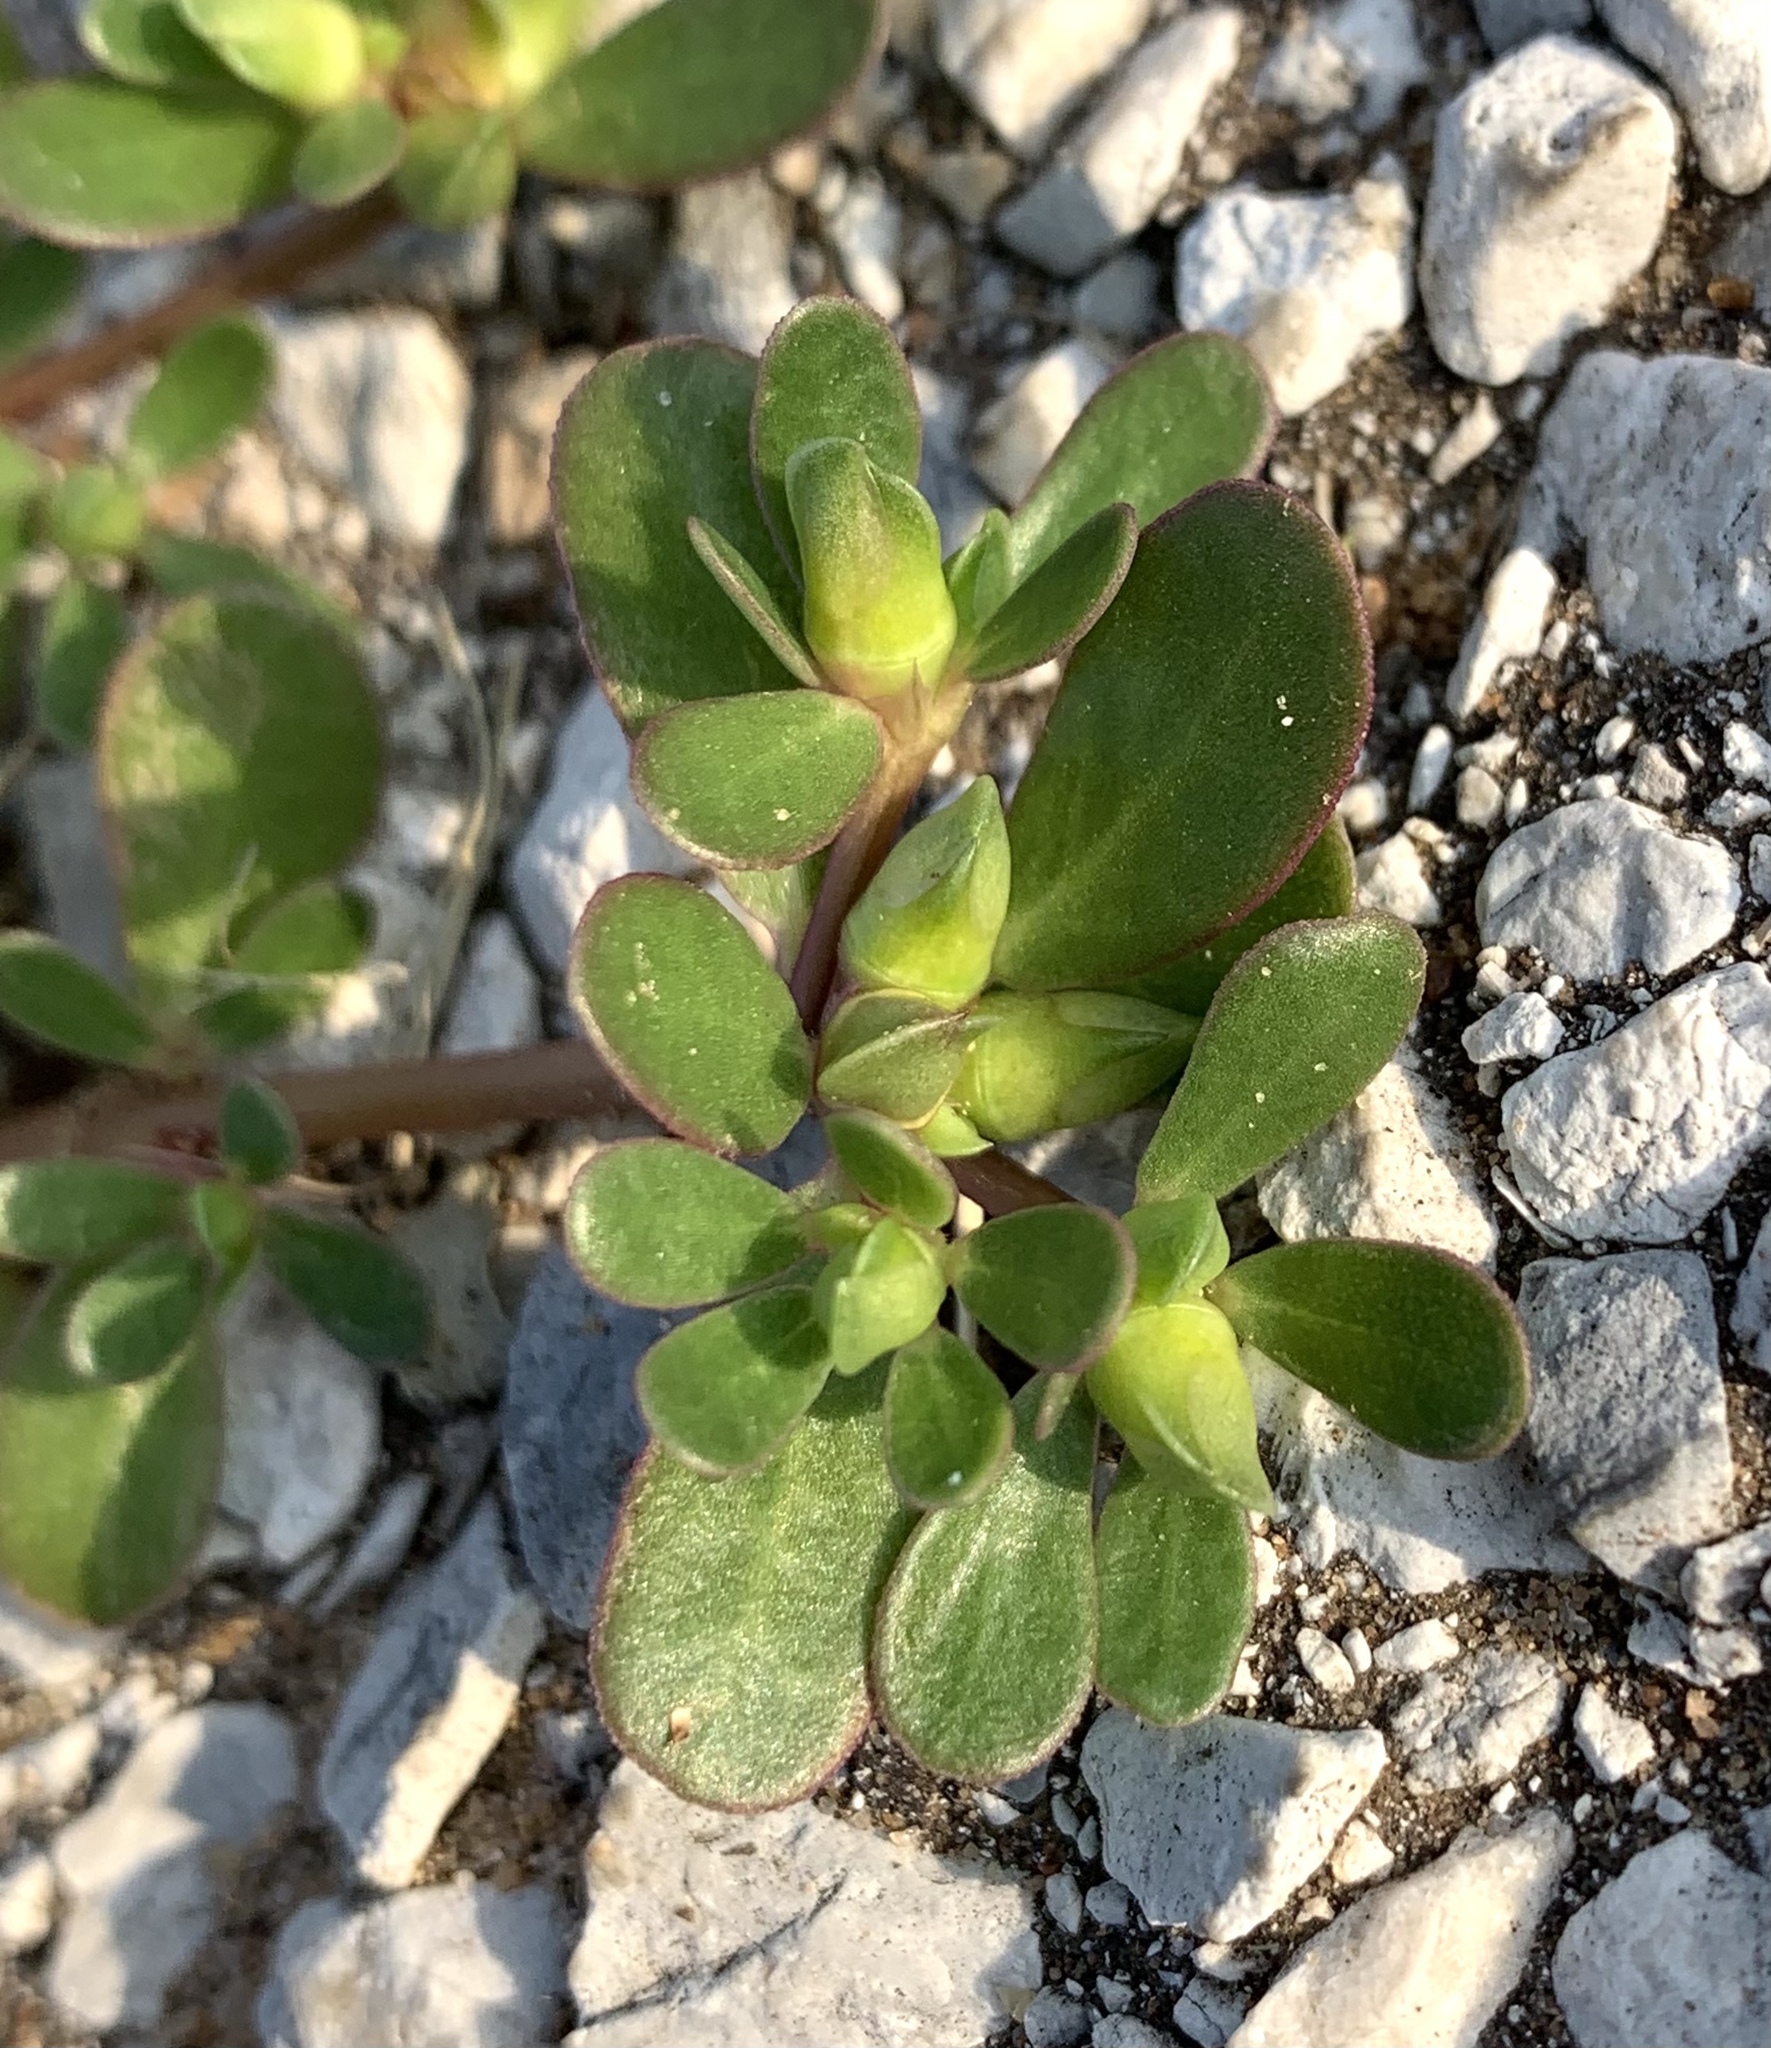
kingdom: Plantae
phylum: Tracheophyta
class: Magnoliopsida
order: Caryophyllales
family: Portulacaceae
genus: Portulaca
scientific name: Portulaca oleracea
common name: Common purslane
